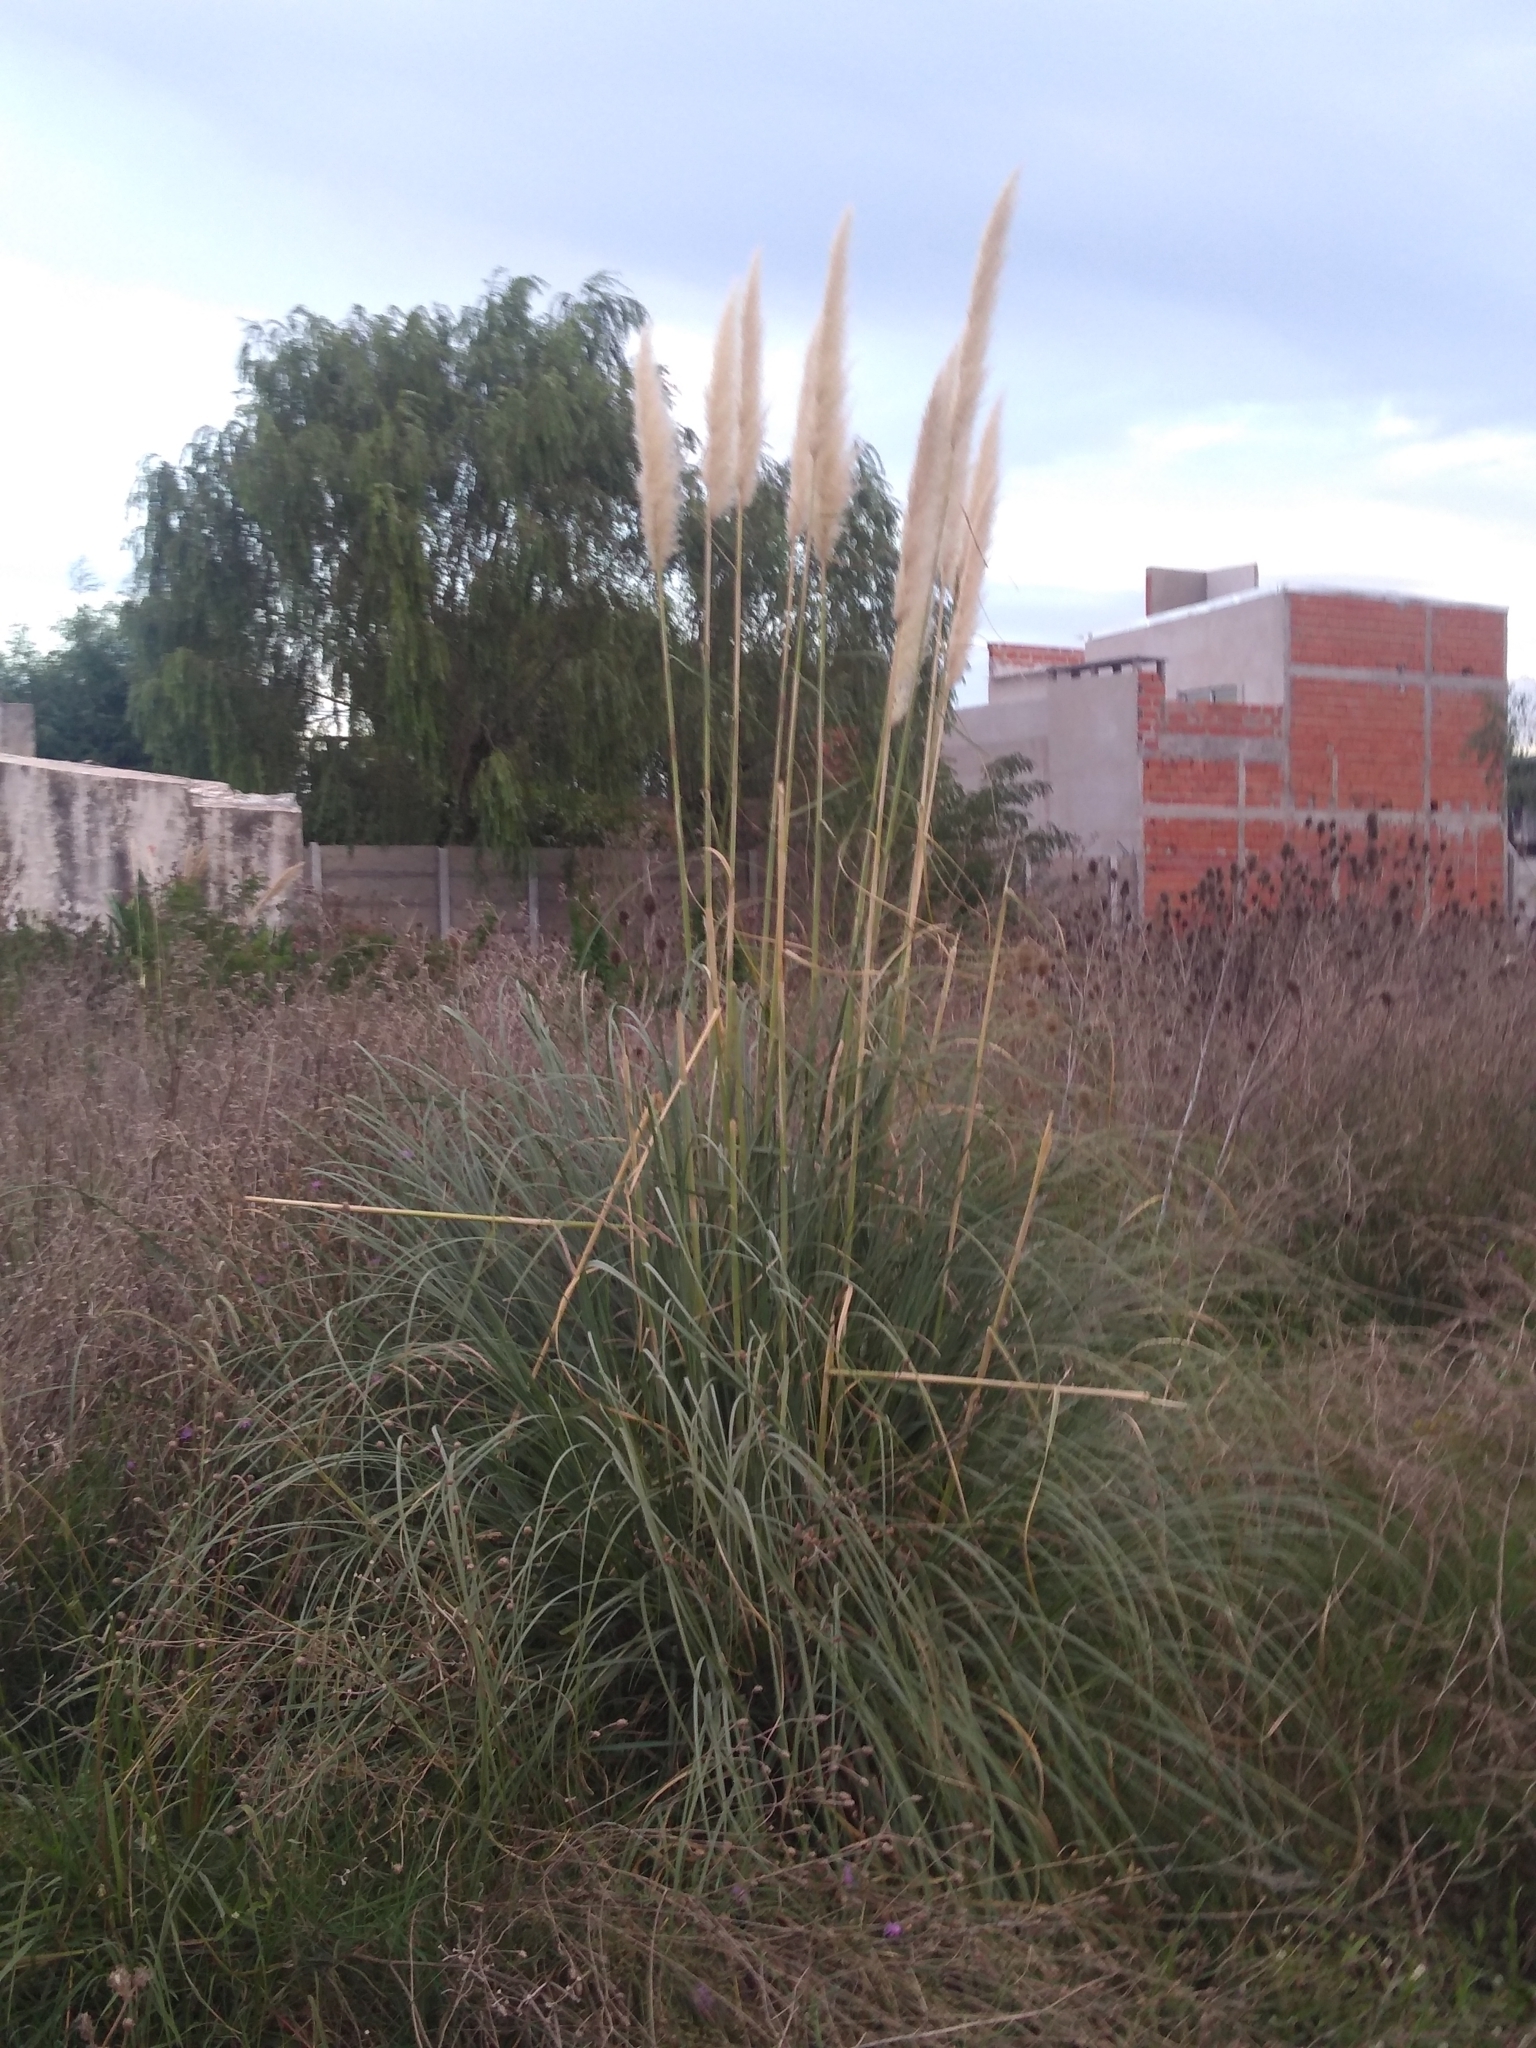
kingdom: Plantae
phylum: Tracheophyta
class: Liliopsida
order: Poales
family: Poaceae
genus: Cortaderia
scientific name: Cortaderia selloana
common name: Uruguayan pampas grass
